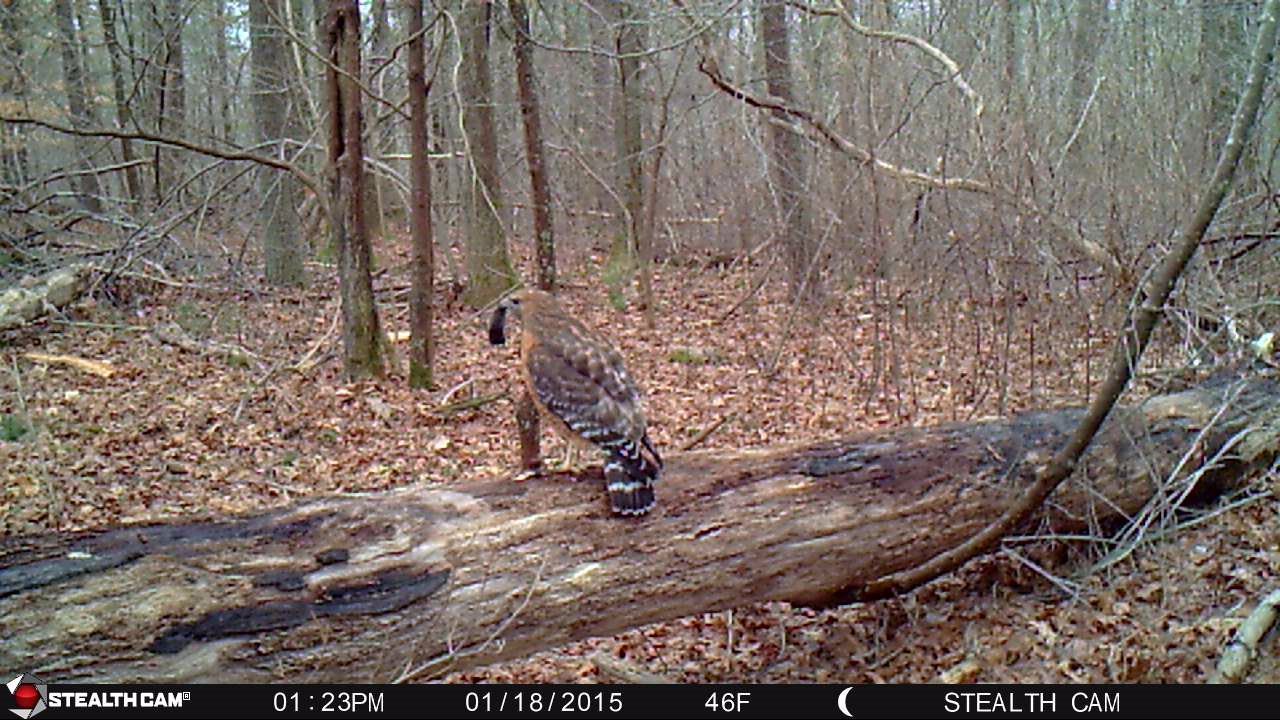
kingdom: Animalia
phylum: Chordata
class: Aves
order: Accipitriformes
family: Accipitridae
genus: Buteo
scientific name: Buteo lineatus
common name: Red-shouldered hawk
